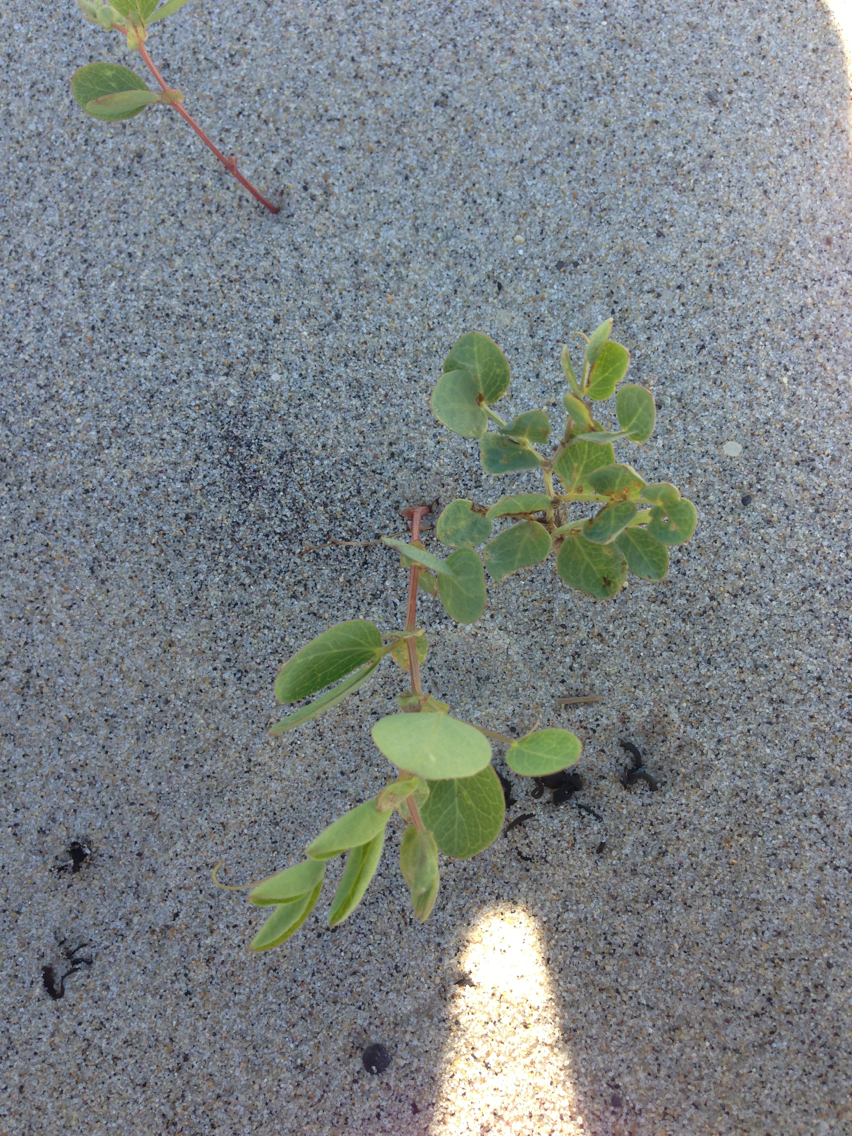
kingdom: Plantae
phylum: Tracheophyta
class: Magnoliopsida
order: Fabales
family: Fabaceae
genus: Lathyrus
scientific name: Lathyrus japonicus
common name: Sea pea
